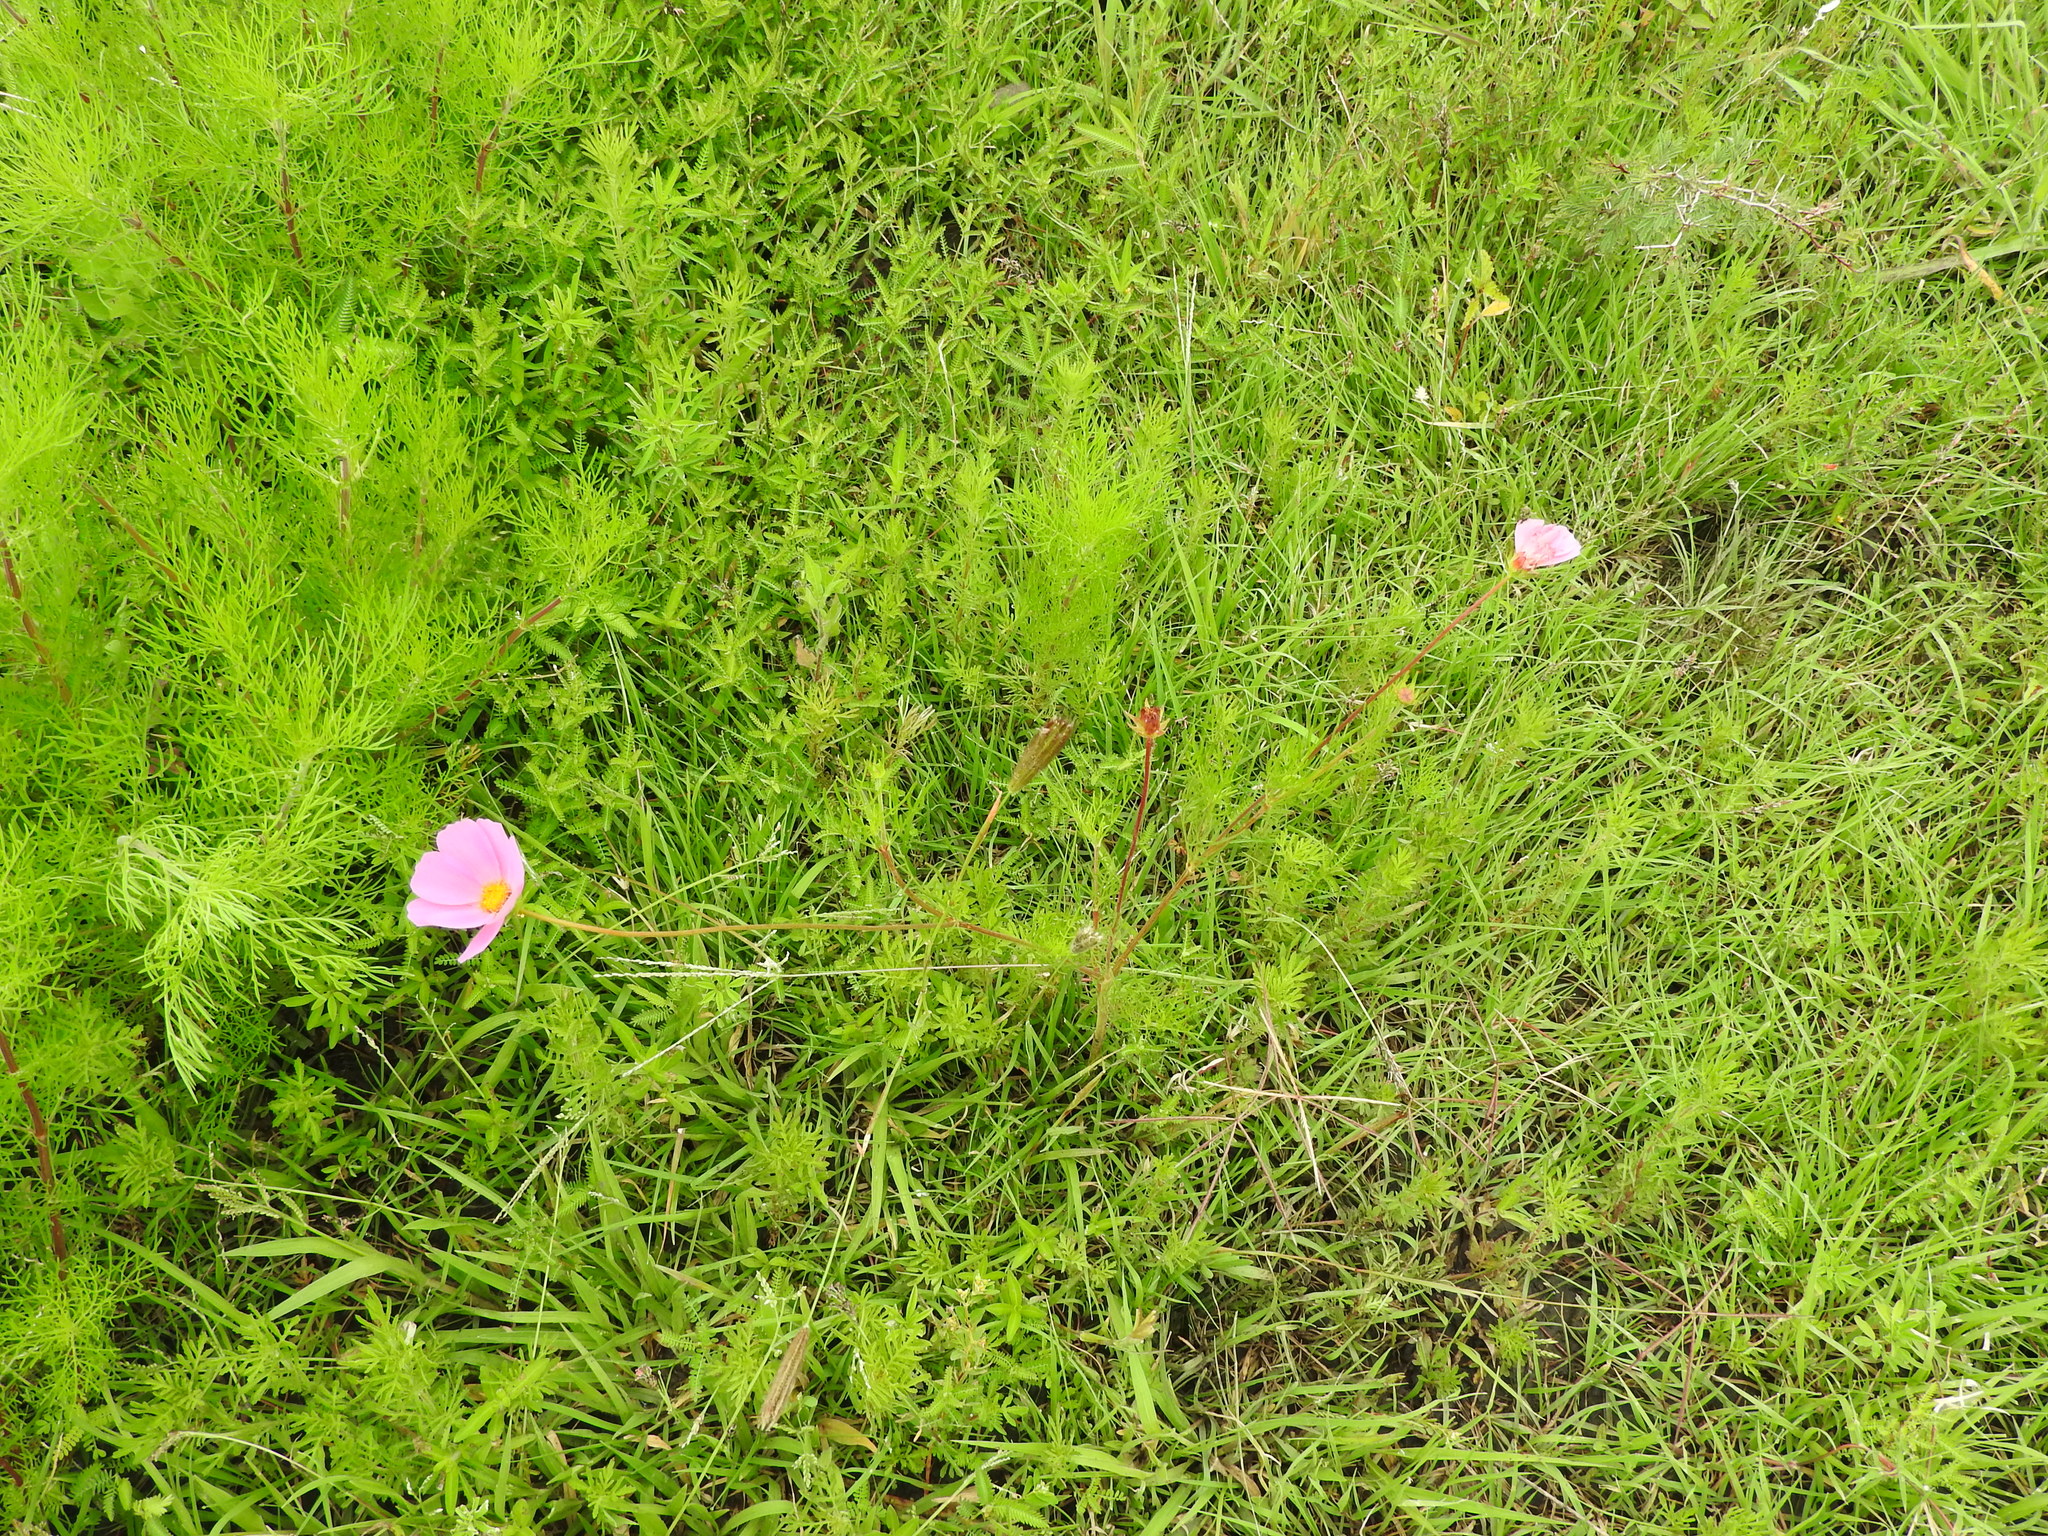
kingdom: Plantae
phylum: Tracheophyta
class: Magnoliopsida
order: Asterales
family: Asteraceae
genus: Cosmos
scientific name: Cosmos bipinnatus
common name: Garden cosmos
